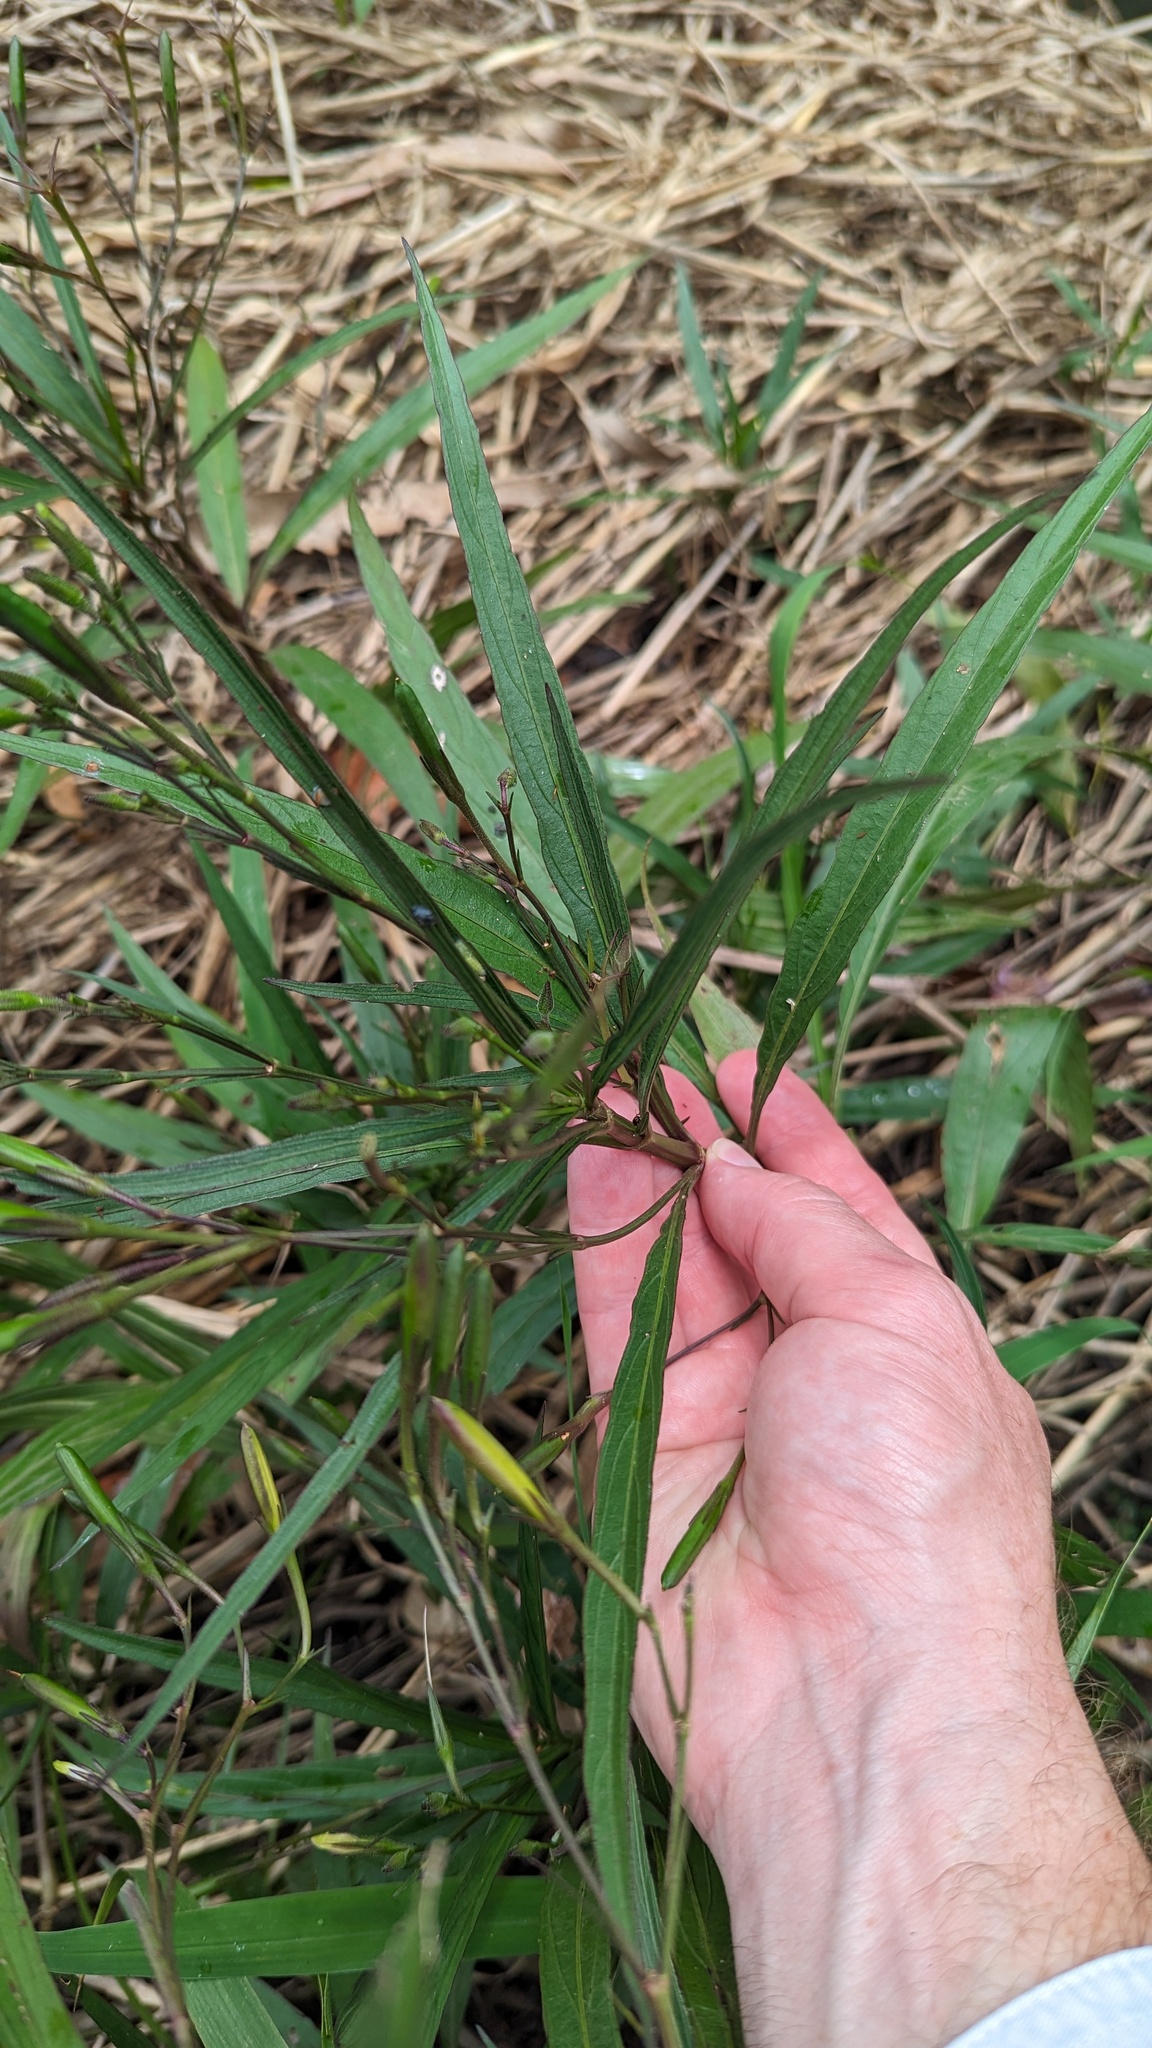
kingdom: Plantae
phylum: Tracheophyta
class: Magnoliopsida
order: Lamiales
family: Acanthaceae
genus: Ruellia
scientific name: Ruellia simplex
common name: Softseed wild petunia
